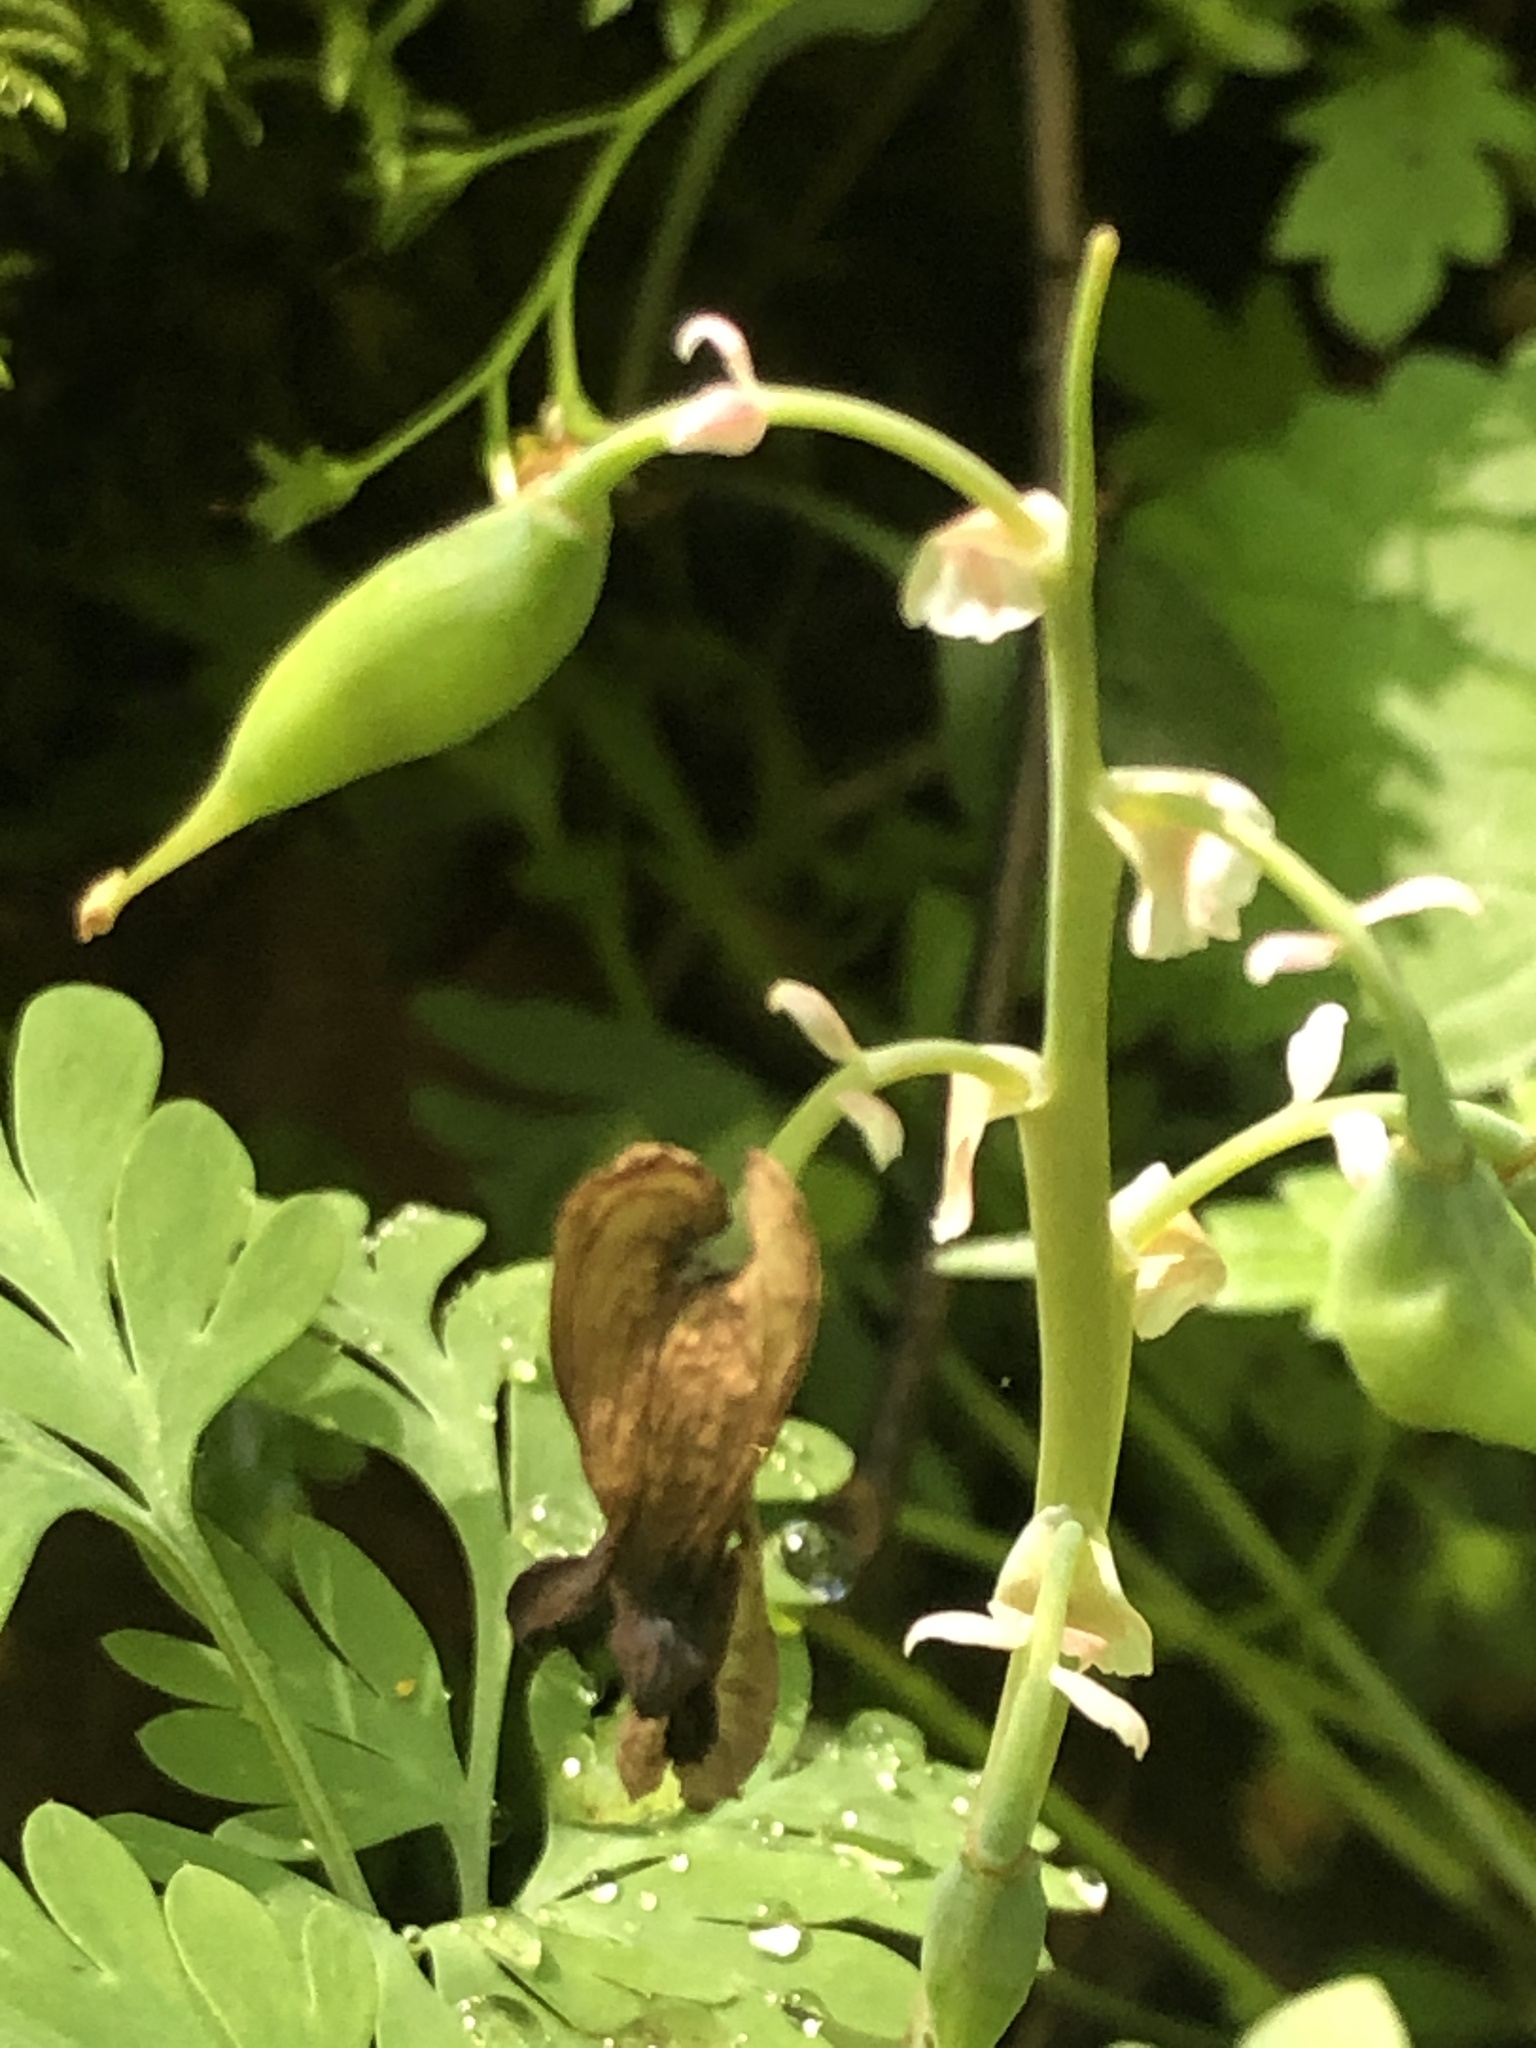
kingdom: Plantae
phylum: Tracheophyta
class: Magnoliopsida
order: Ranunculales
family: Papaveraceae
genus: Dicentra
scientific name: Dicentra canadensis
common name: Squirrel-corn
